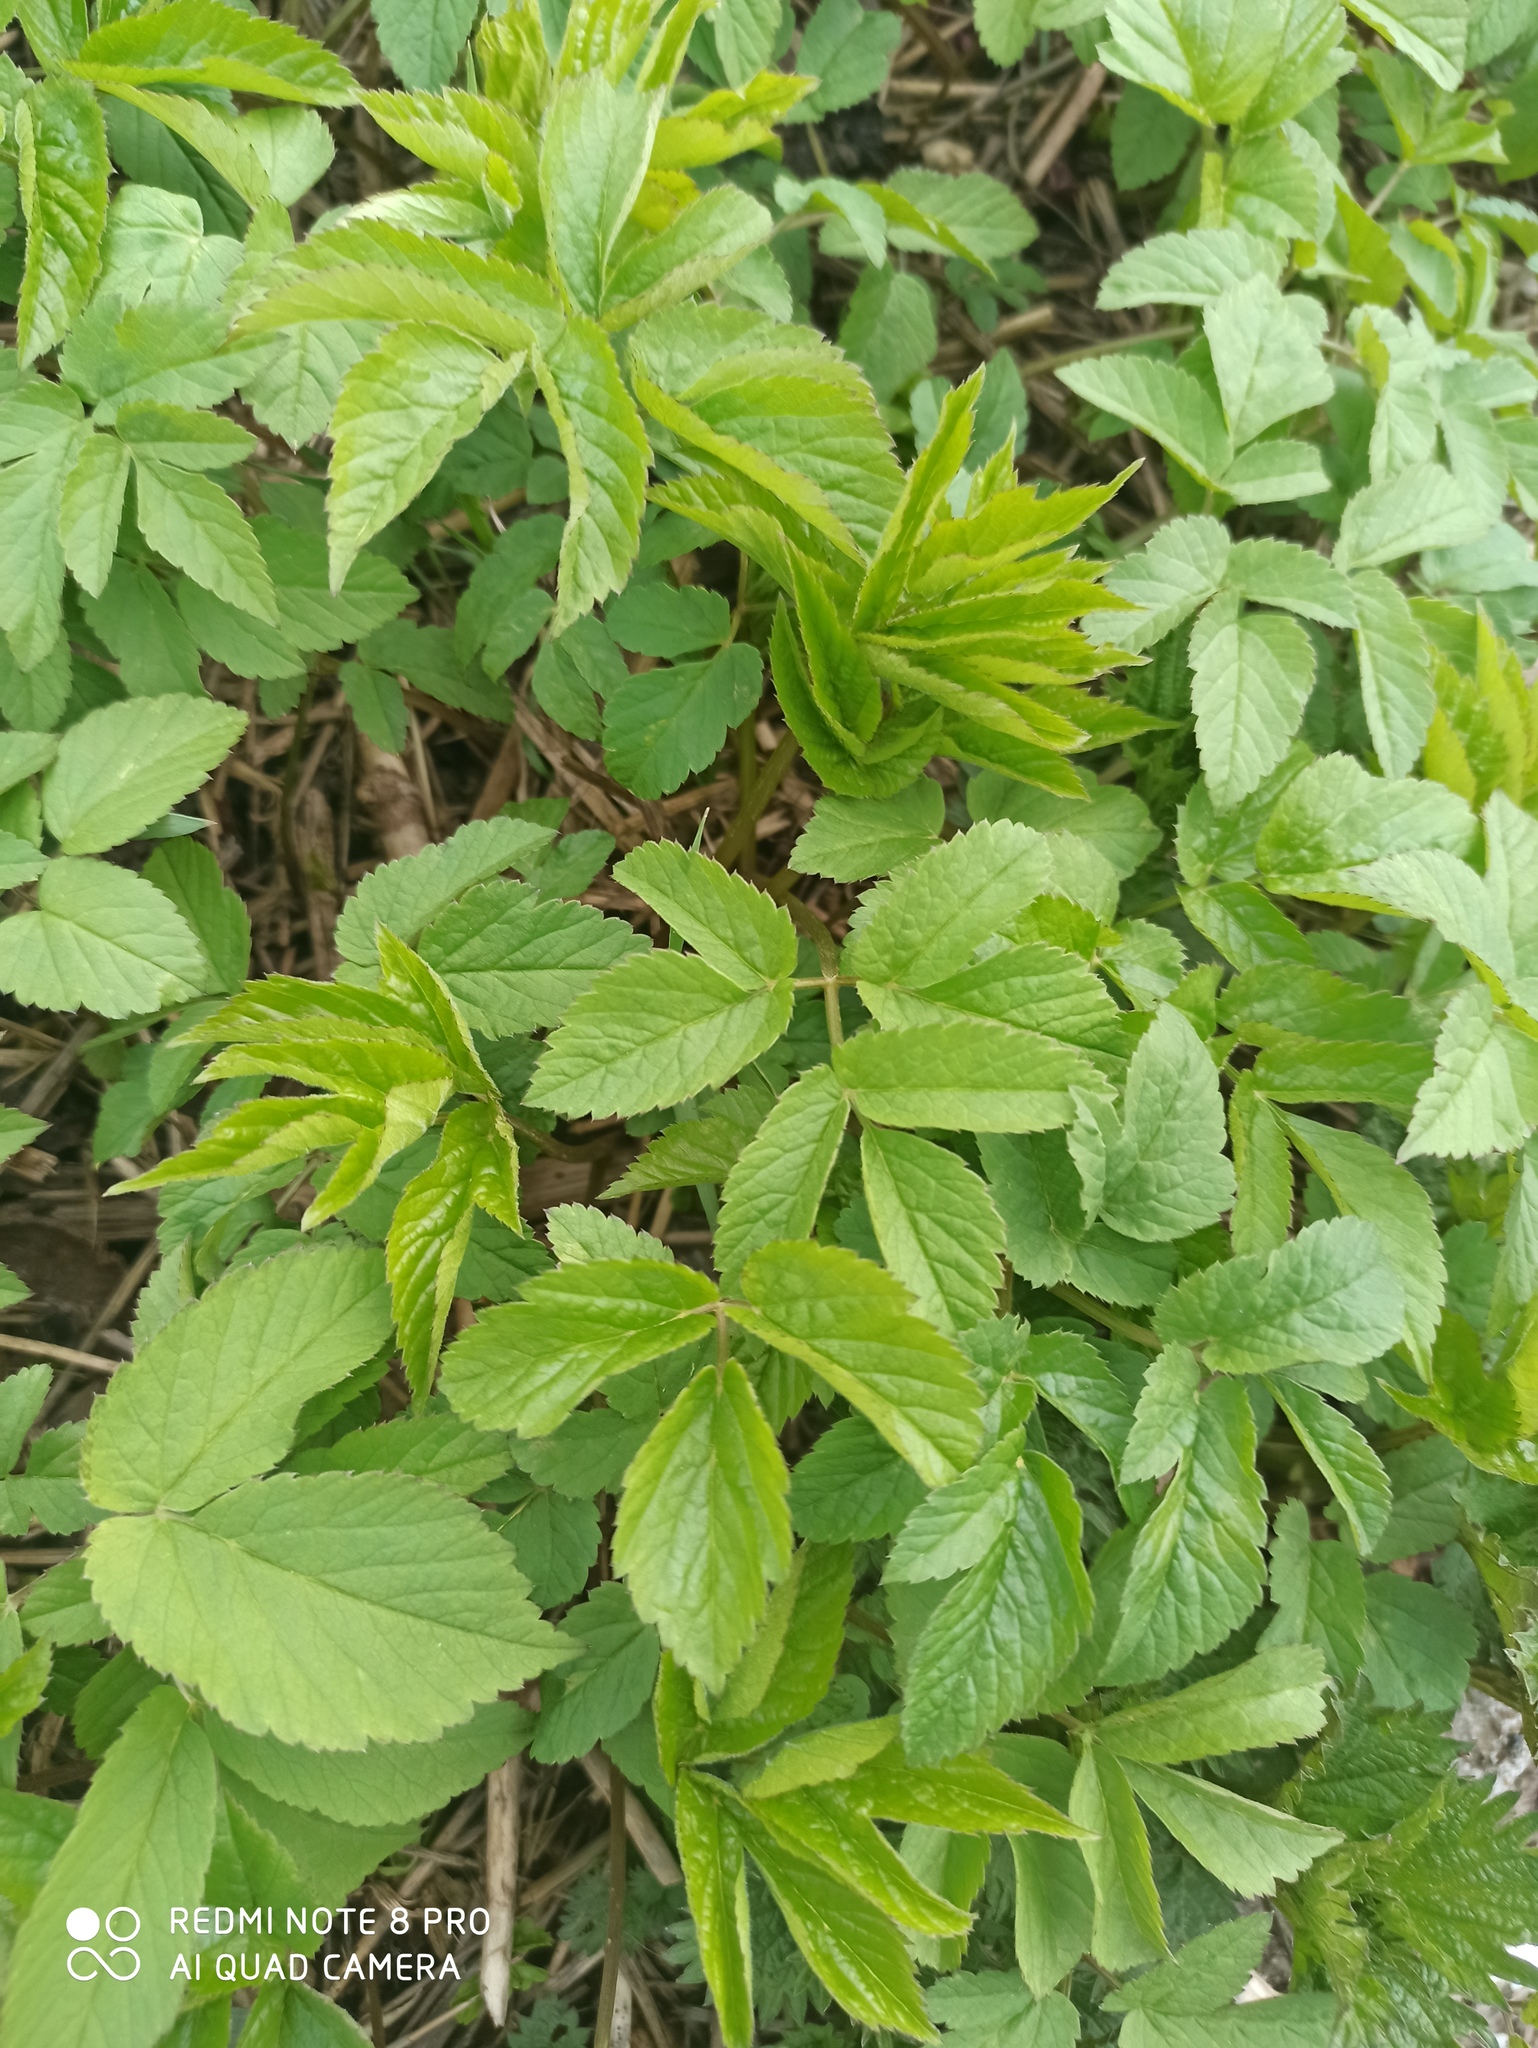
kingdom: Plantae
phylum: Tracheophyta
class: Magnoliopsida
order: Apiales
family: Apiaceae
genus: Aegopodium
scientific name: Aegopodium podagraria
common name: Ground-elder
